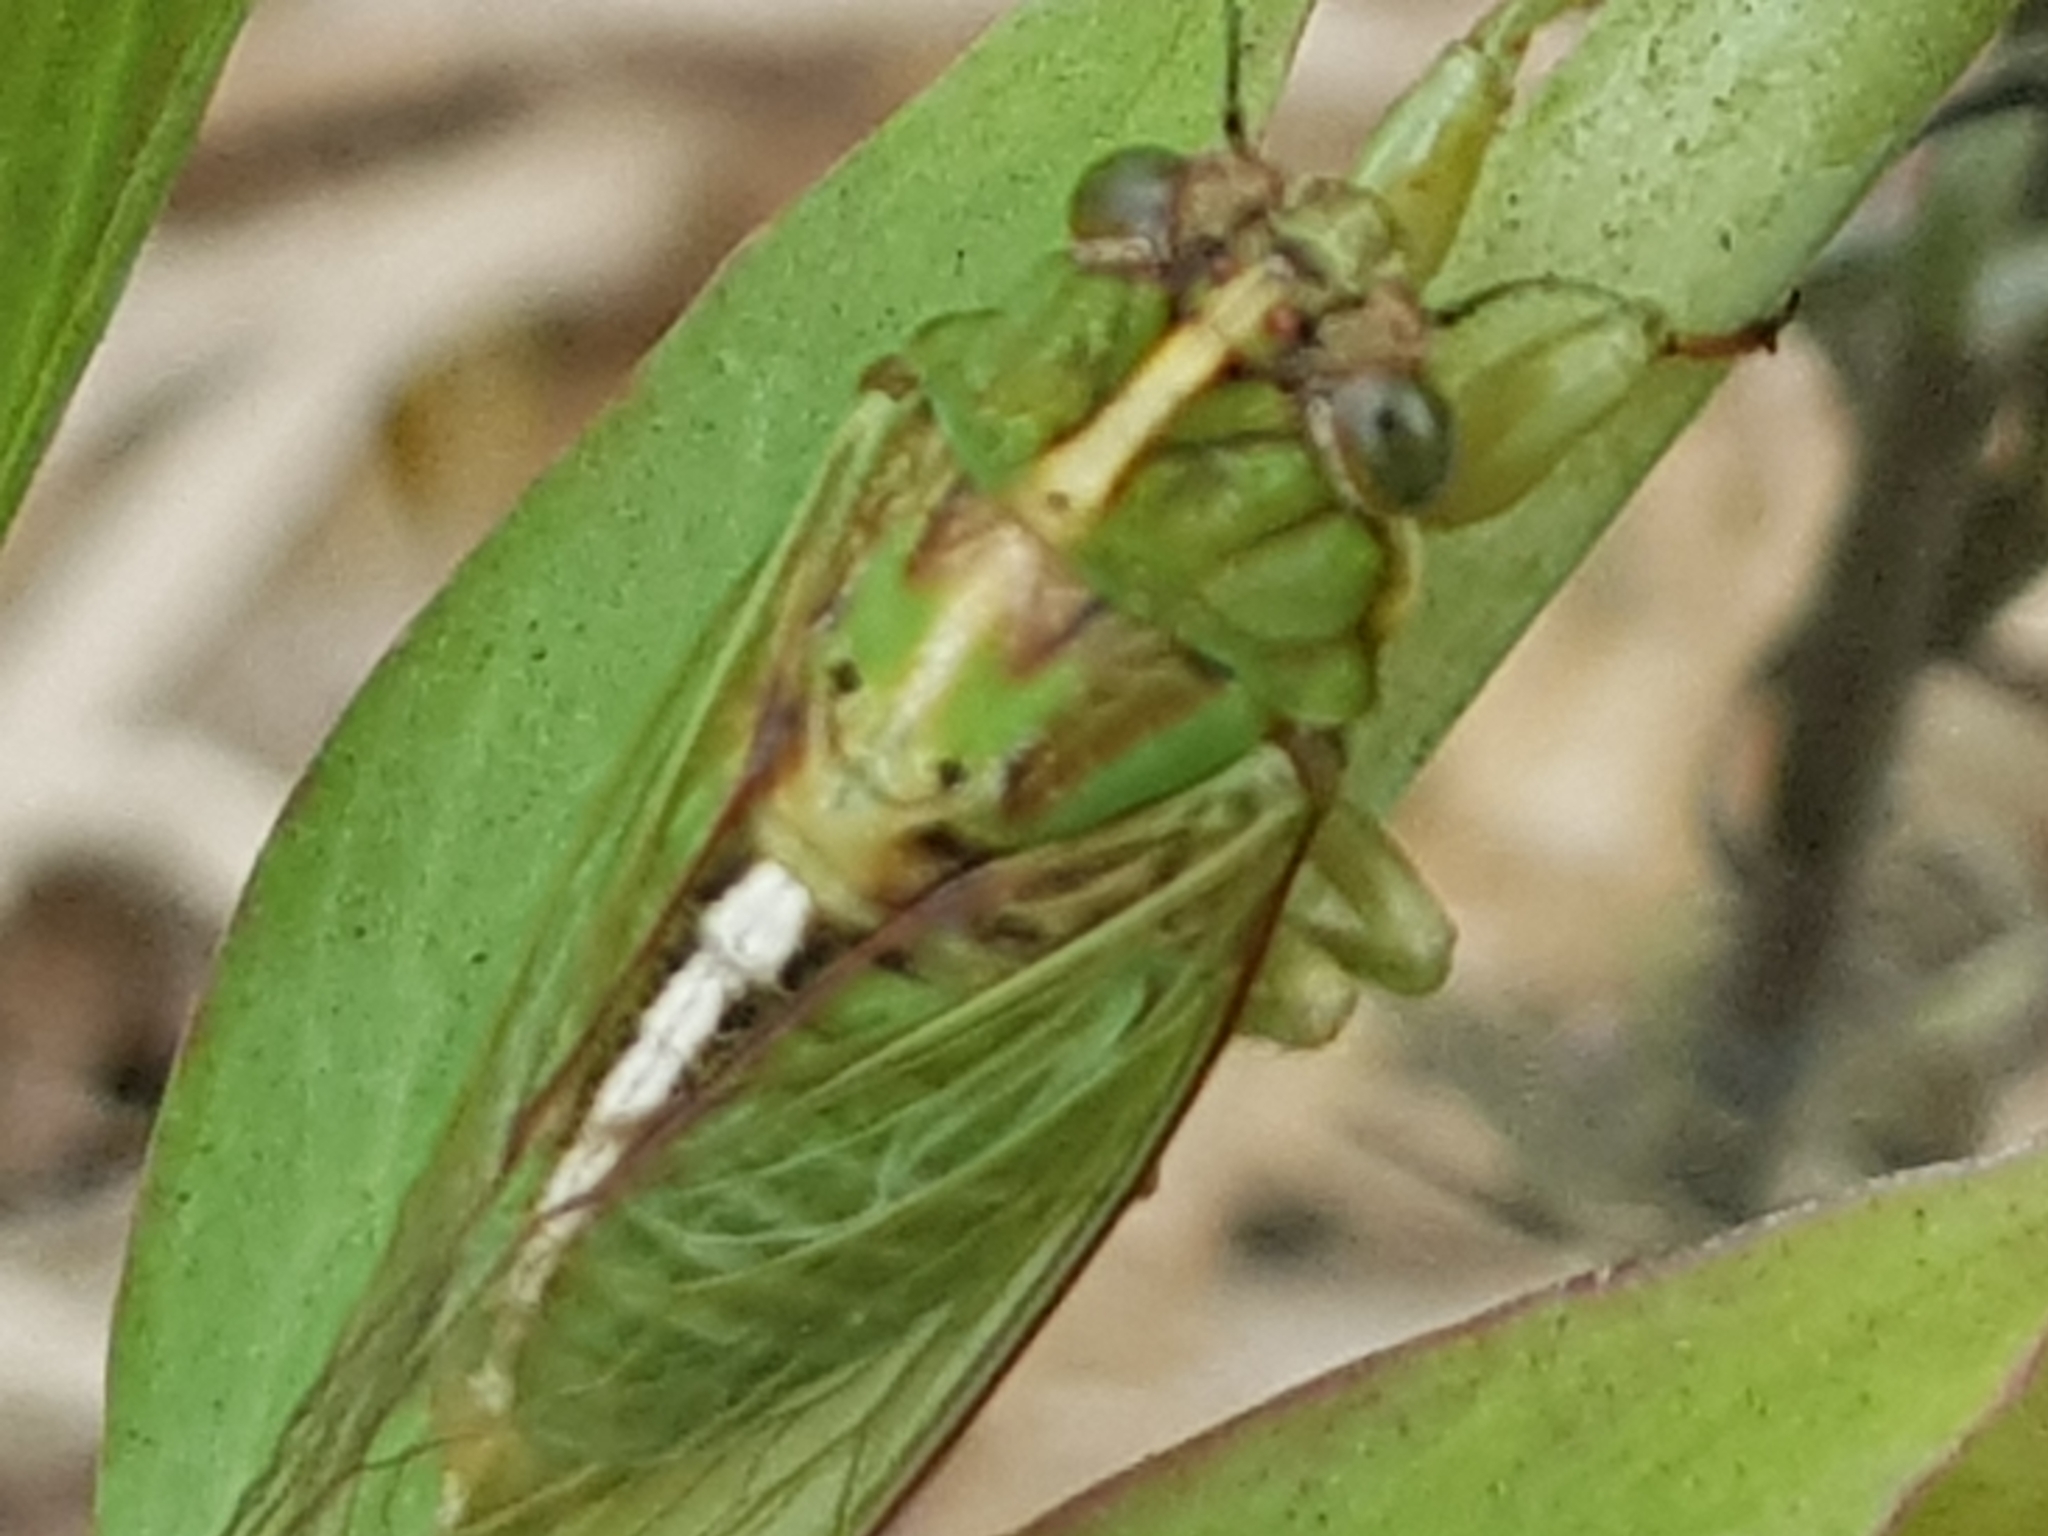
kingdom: Animalia
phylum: Arthropoda
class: Insecta
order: Hemiptera
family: Cicadidae
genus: Kikihia
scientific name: Kikihia muta
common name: Variable cicada
